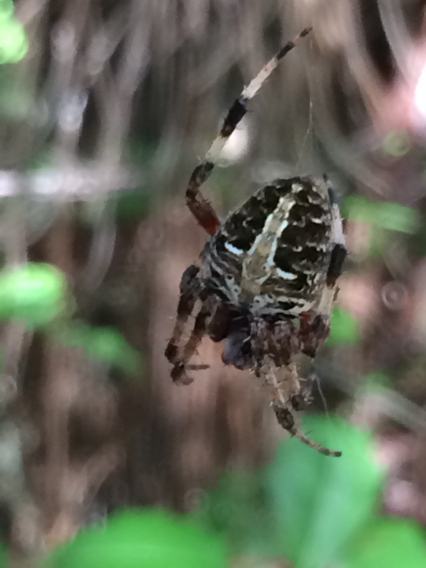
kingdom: Animalia
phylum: Arthropoda
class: Arachnida
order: Araneae
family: Araneidae
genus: Neoscona
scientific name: Neoscona domiciliorum
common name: Red-femured spotted orbweaver
